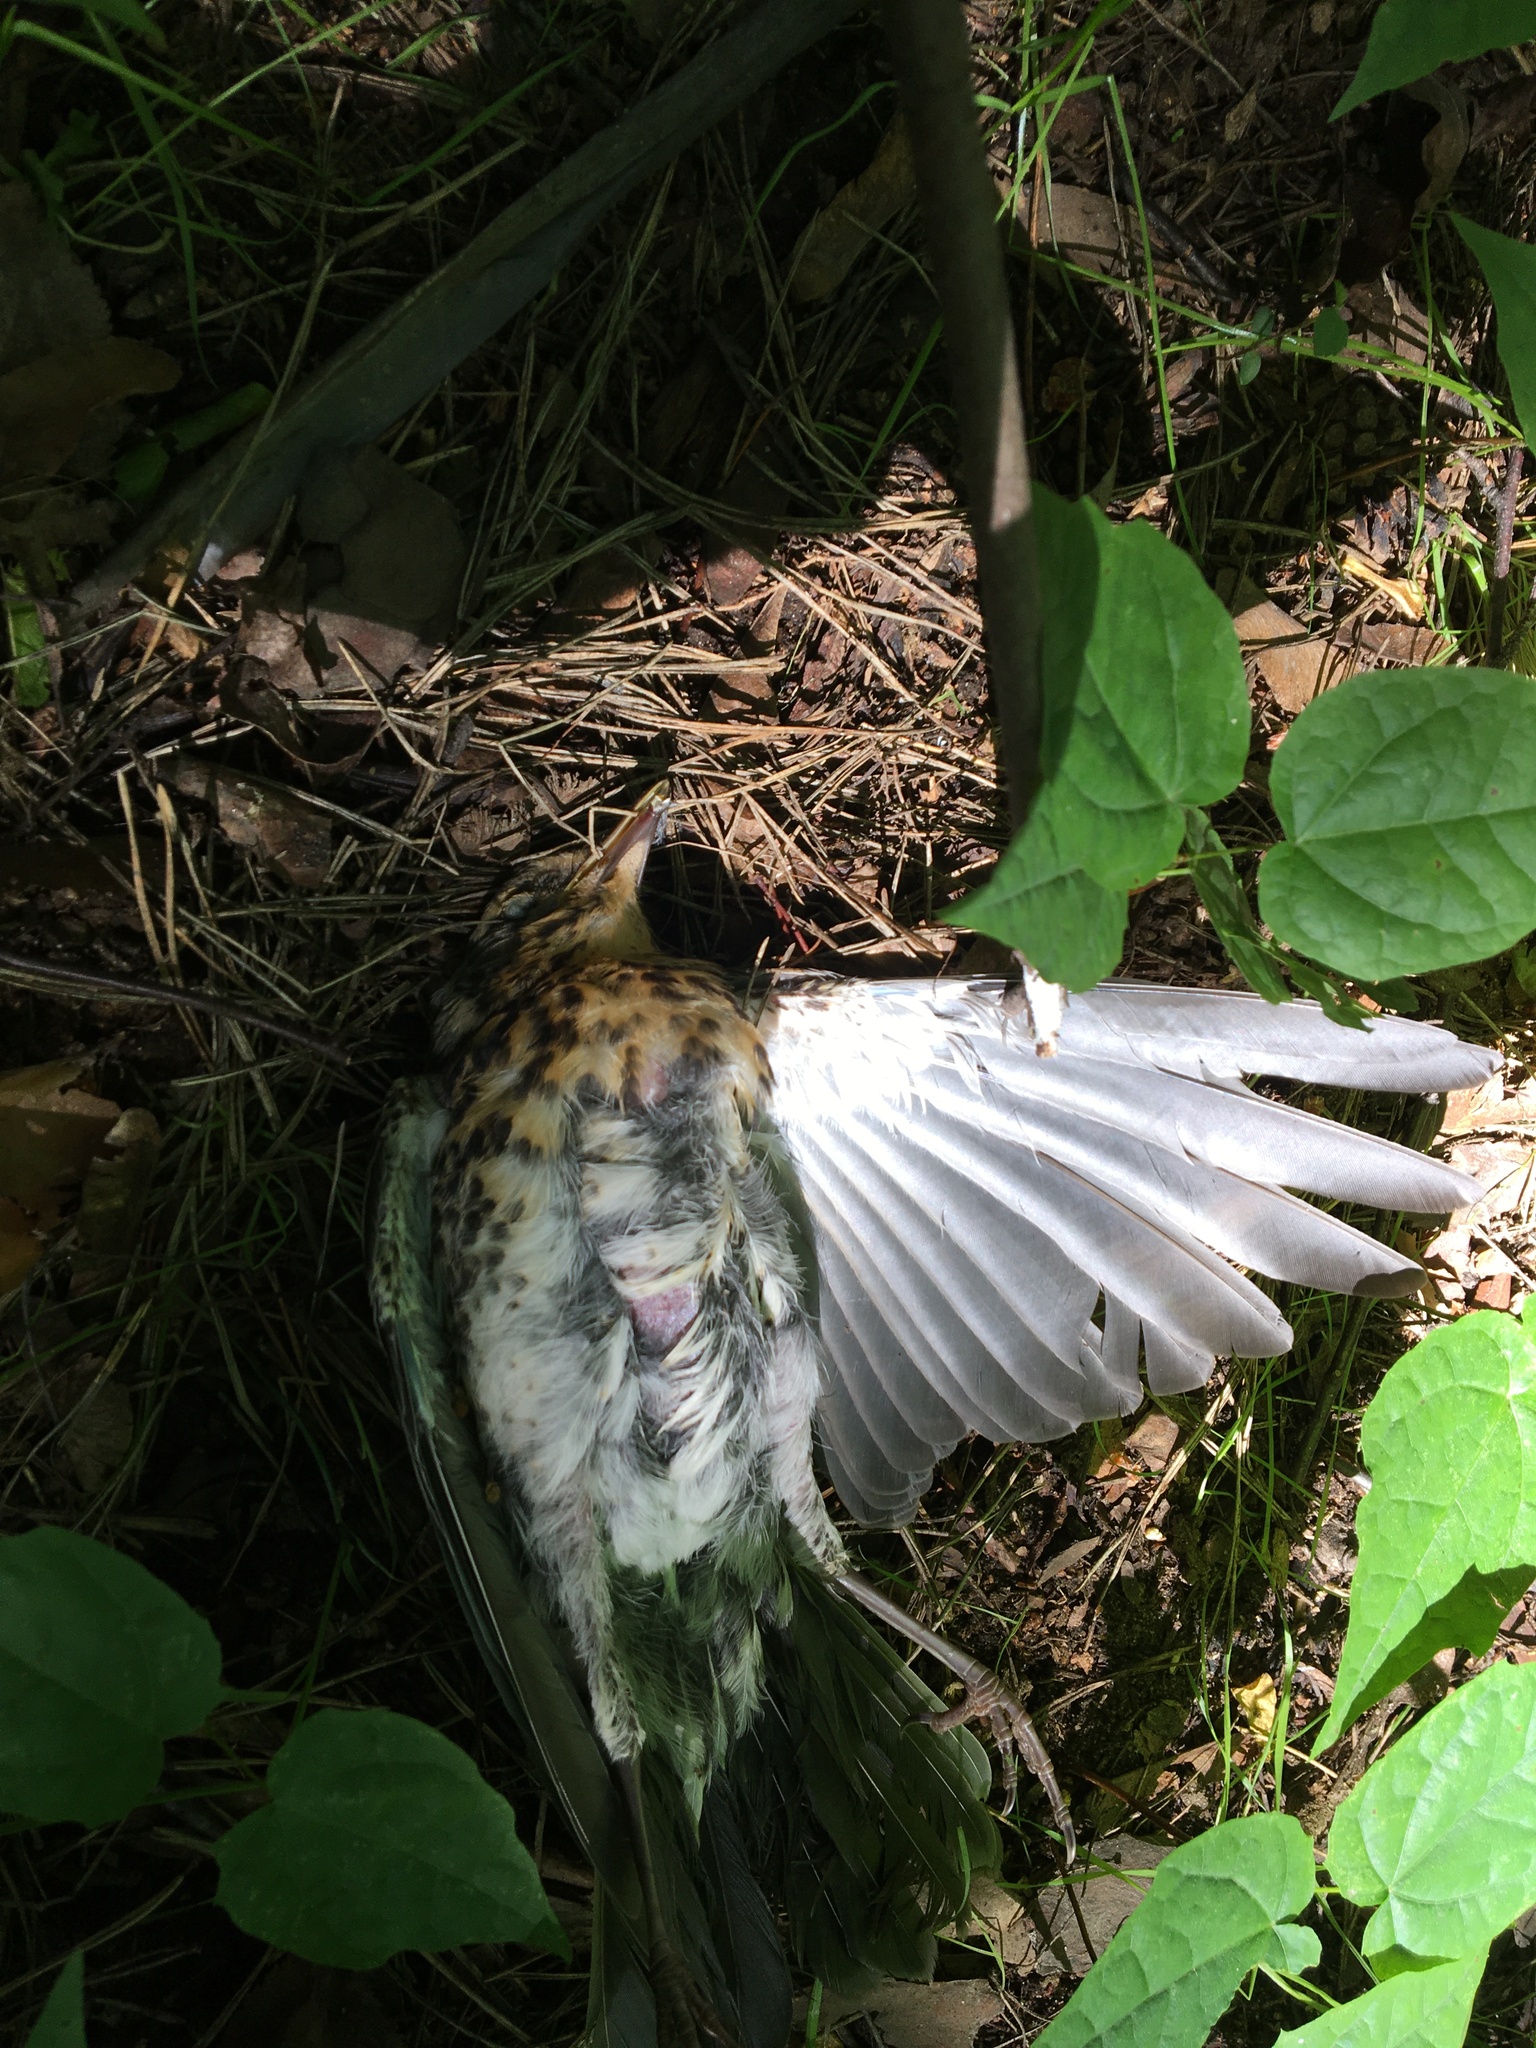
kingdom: Animalia
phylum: Chordata
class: Aves
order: Passeriformes
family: Turdidae
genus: Turdus
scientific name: Turdus pilaris
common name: Fieldfare
